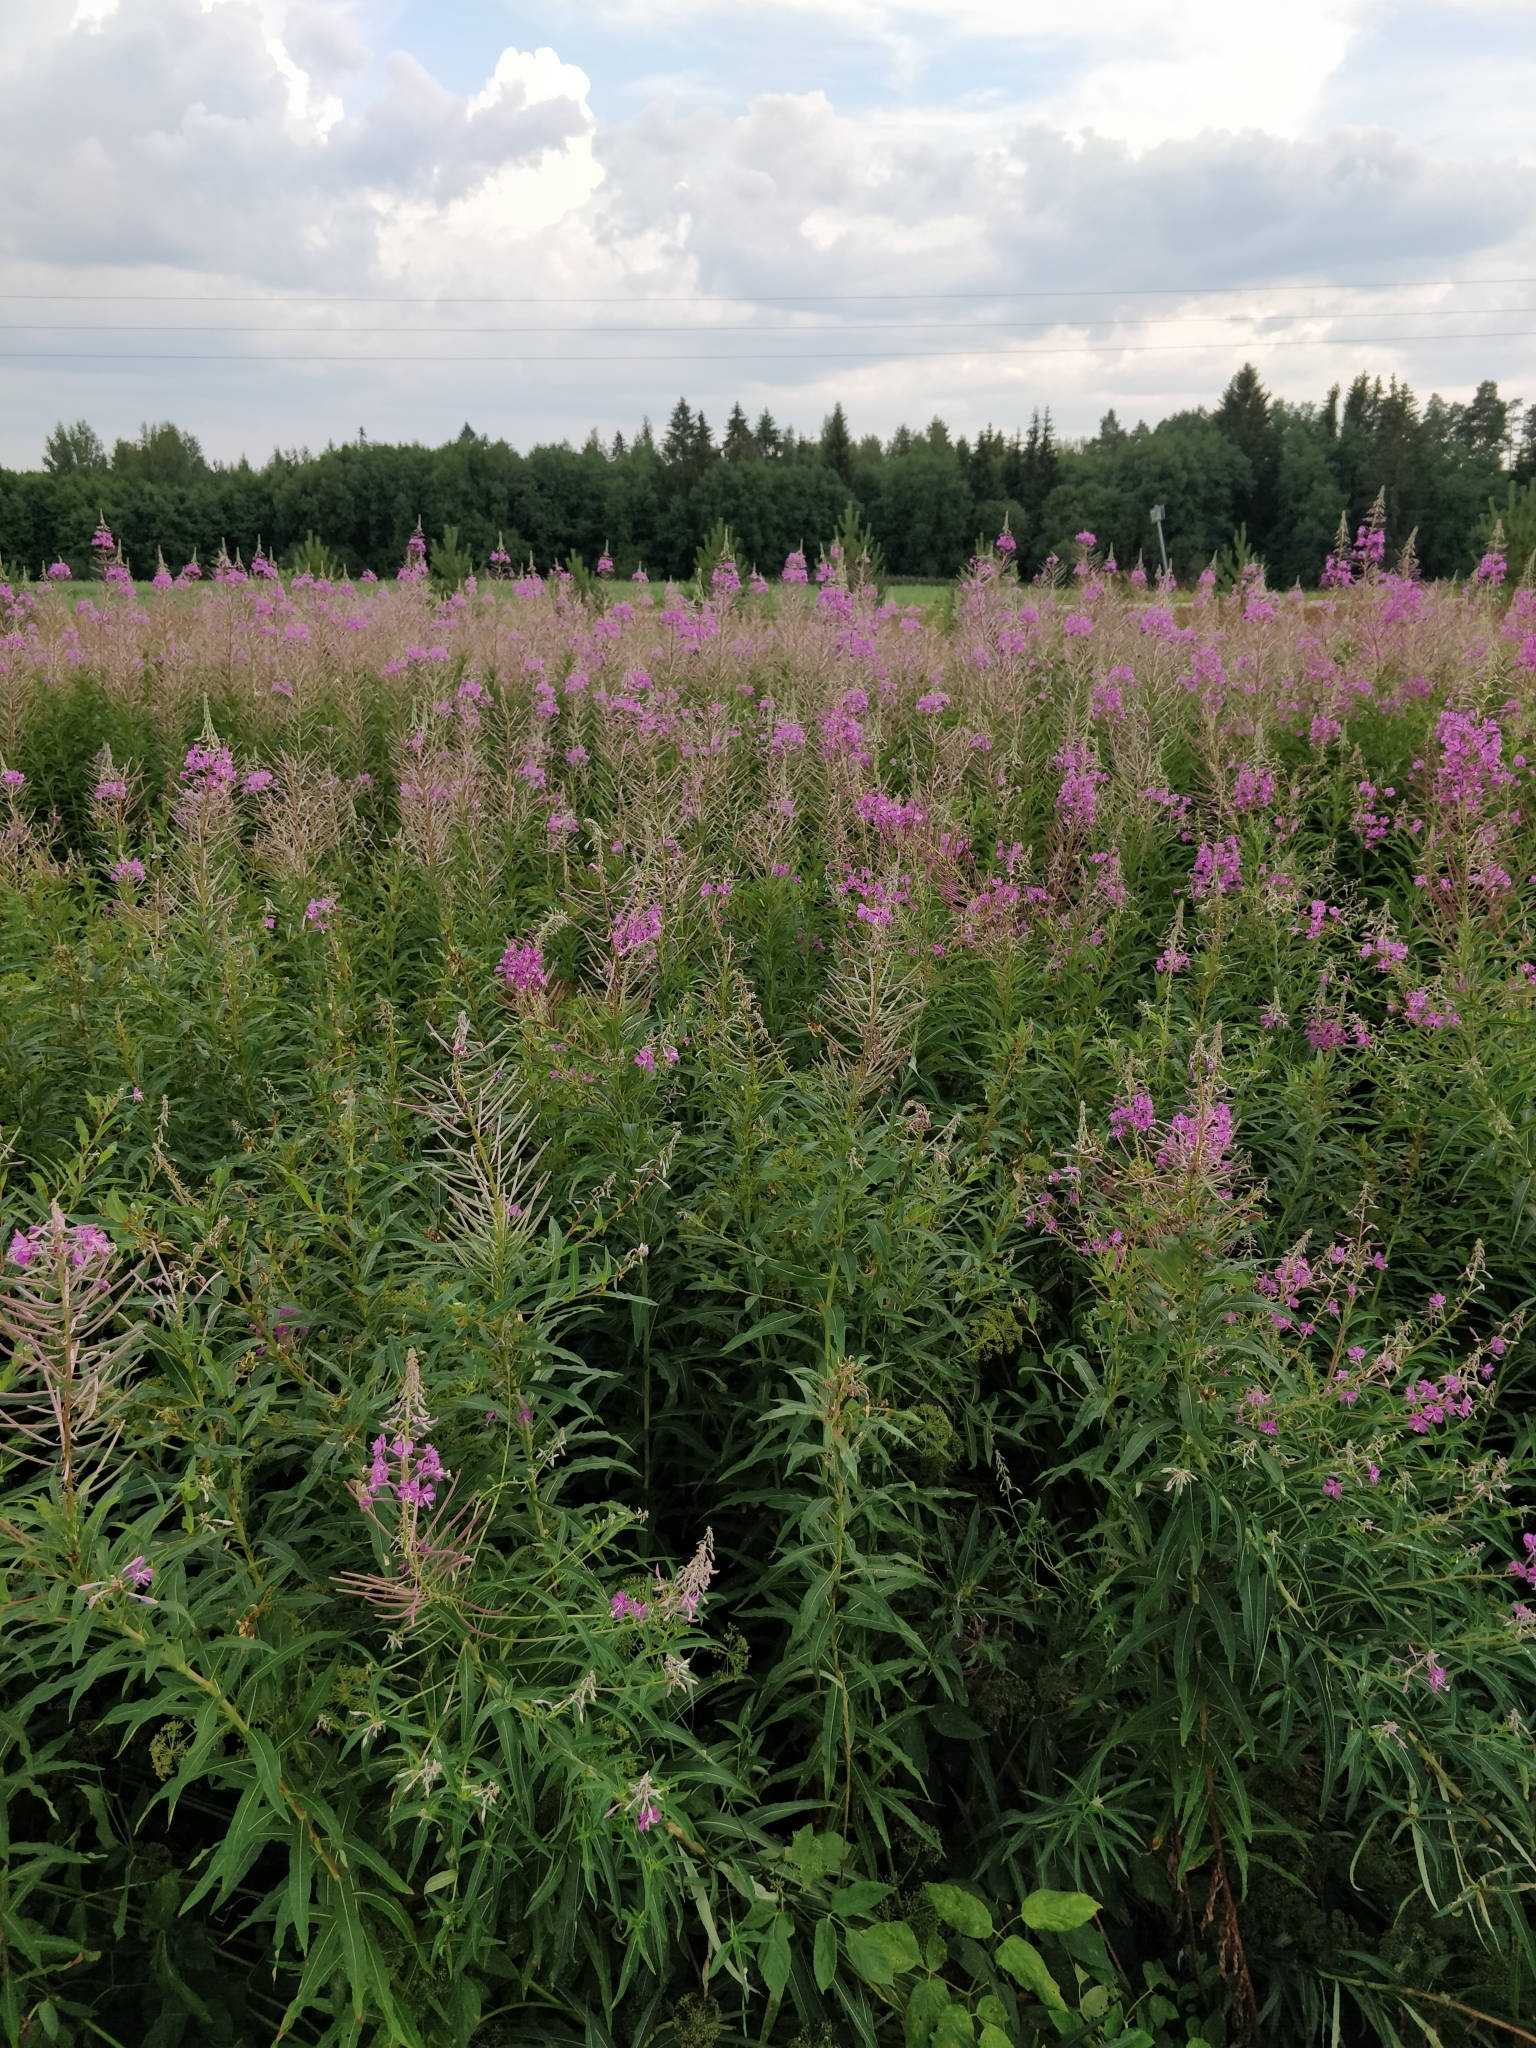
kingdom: Plantae
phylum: Tracheophyta
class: Magnoliopsida
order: Myrtales
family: Onagraceae
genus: Chamaenerion
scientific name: Chamaenerion angustifolium
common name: Fireweed
